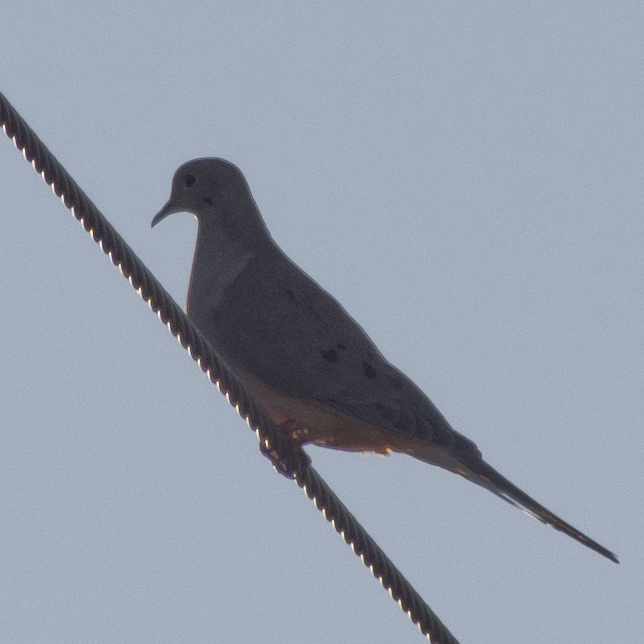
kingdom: Animalia
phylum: Chordata
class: Aves
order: Columbiformes
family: Columbidae
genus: Zenaida
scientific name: Zenaida macroura
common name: Mourning dove
